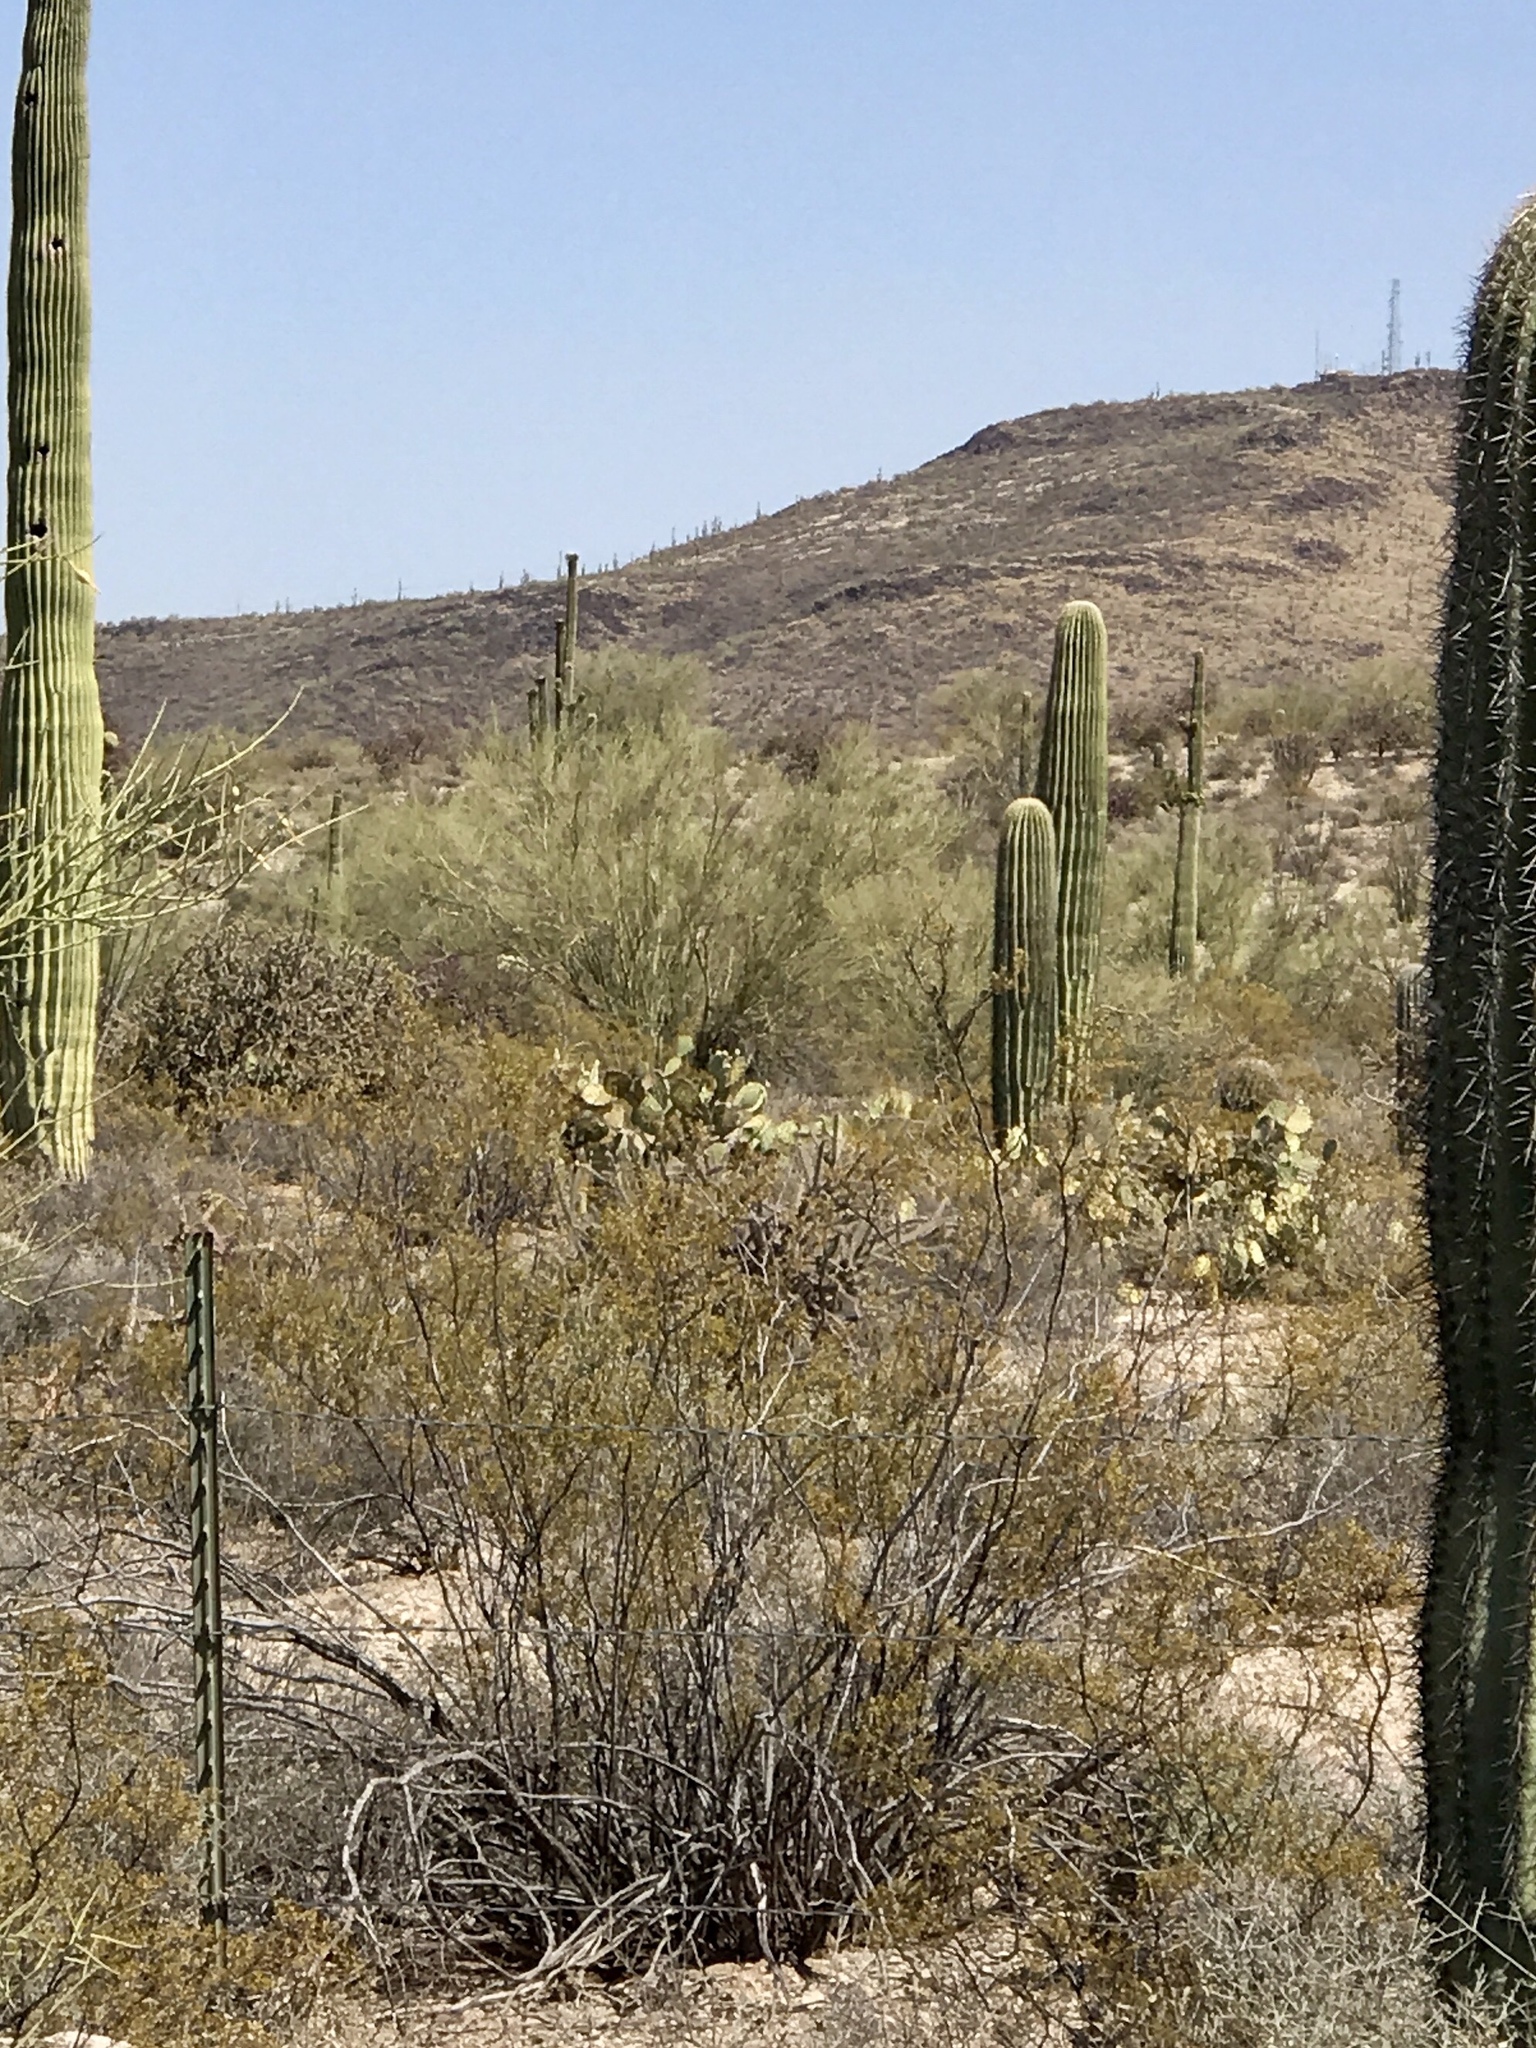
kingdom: Plantae
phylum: Tracheophyta
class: Magnoliopsida
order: Zygophyllales
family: Zygophyllaceae
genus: Larrea
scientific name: Larrea tridentata
